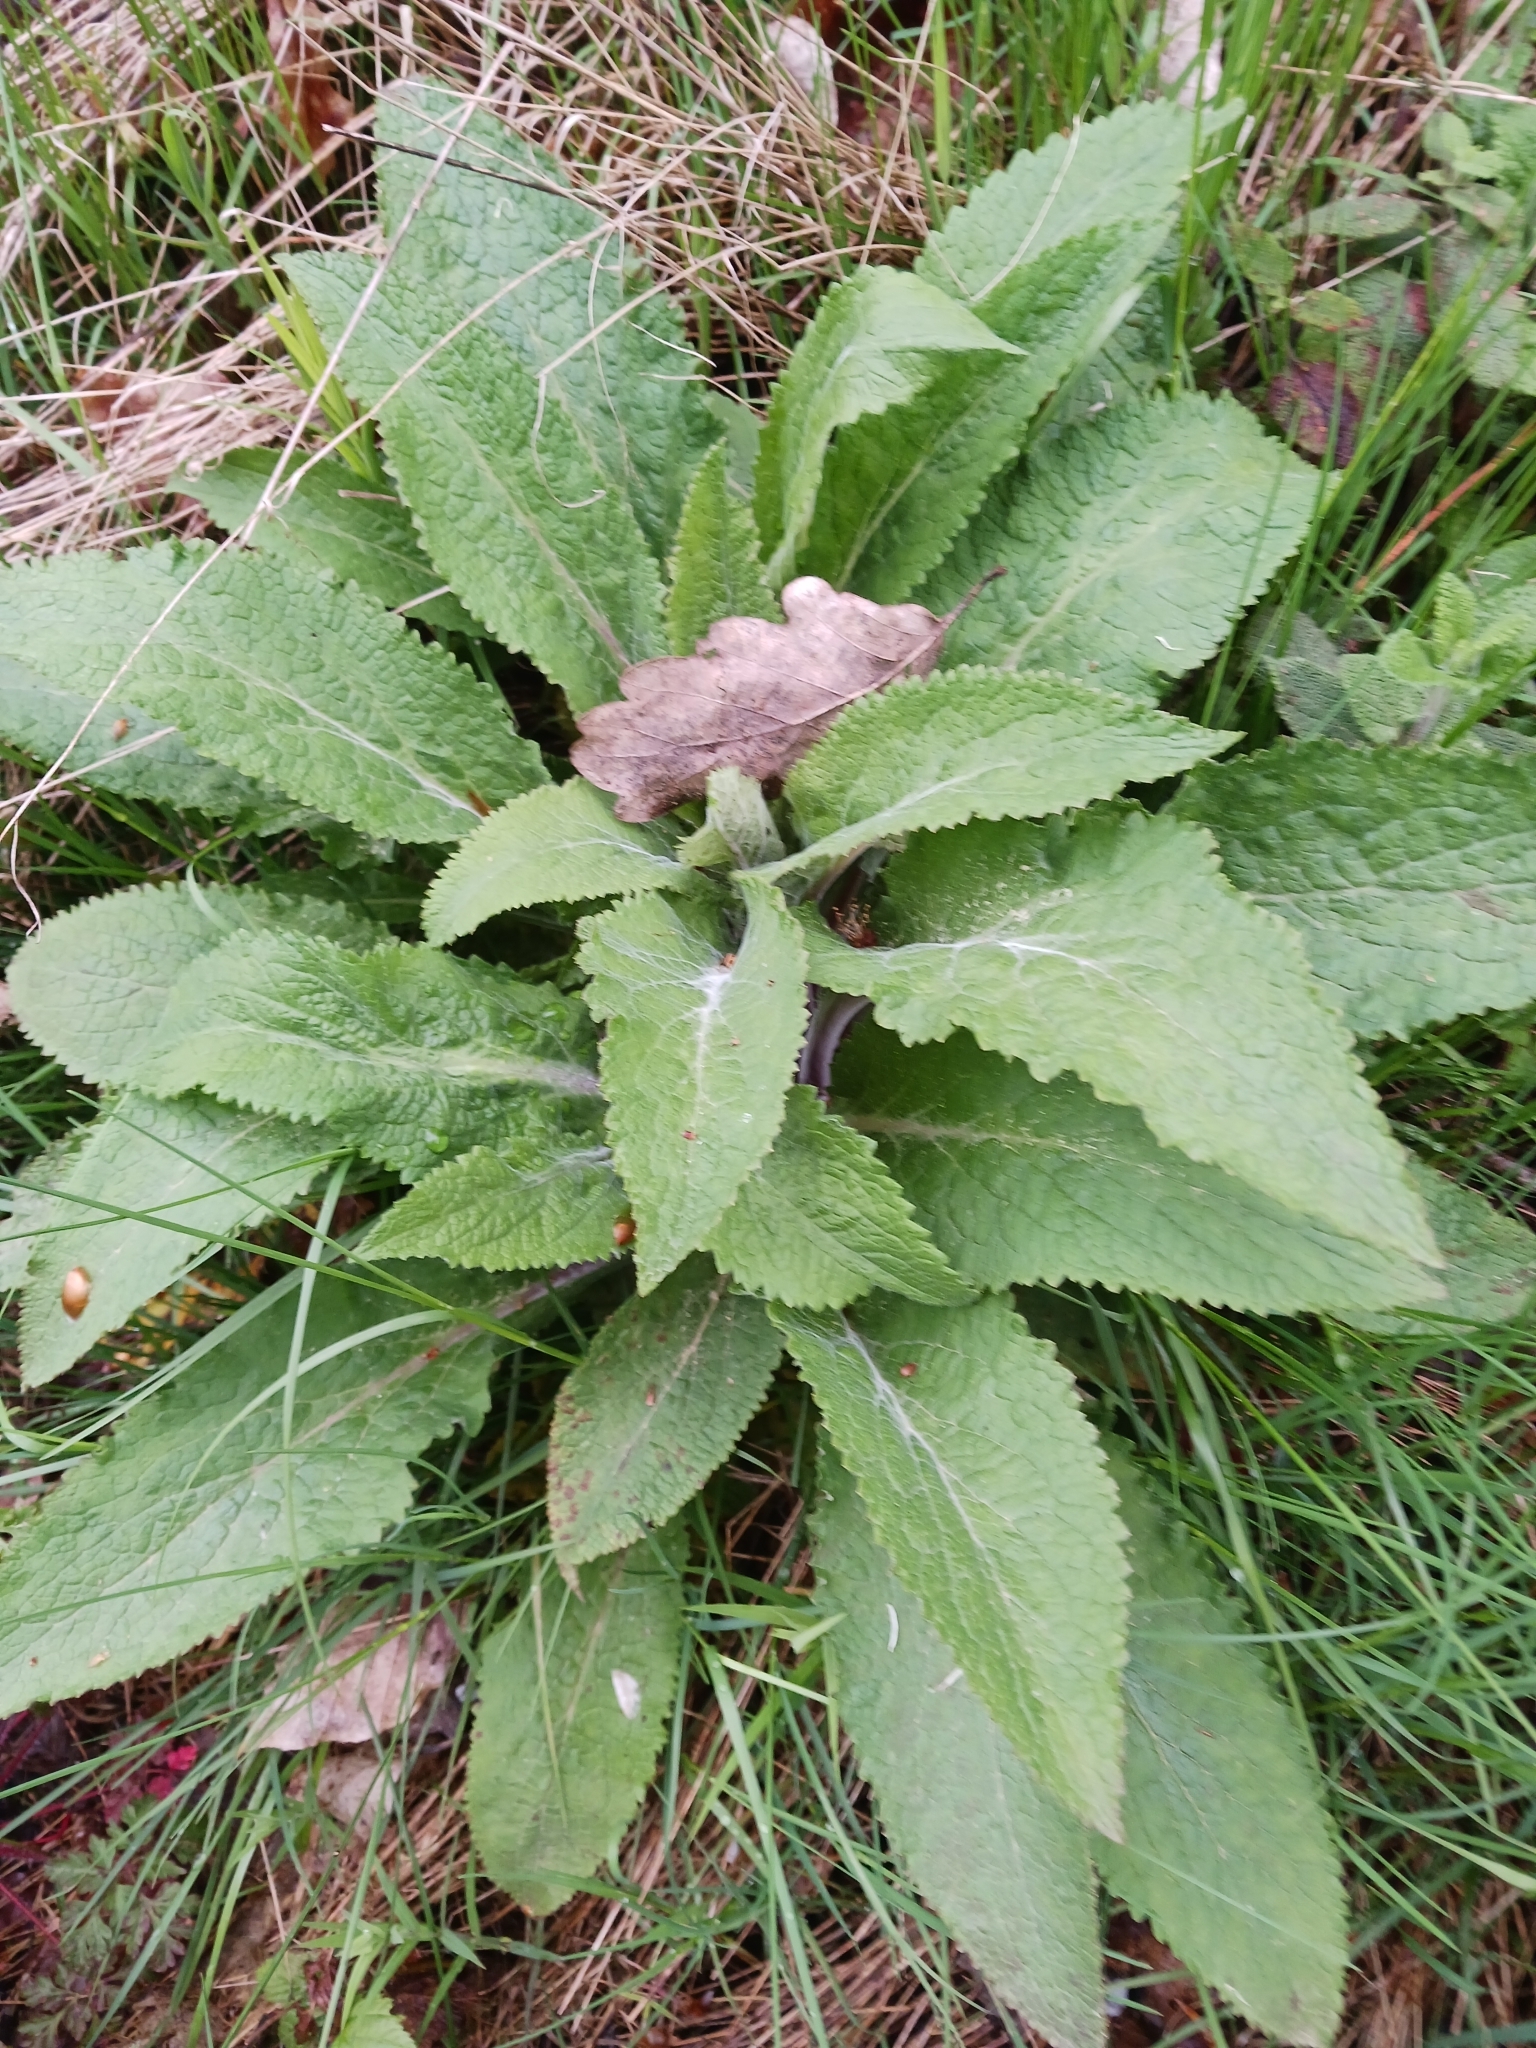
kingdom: Plantae
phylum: Tracheophyta
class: Magnoliopsida
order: Lamiales
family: Plantaginaceae
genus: Digitalis
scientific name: Digitalis purpurea
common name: Foxglove
